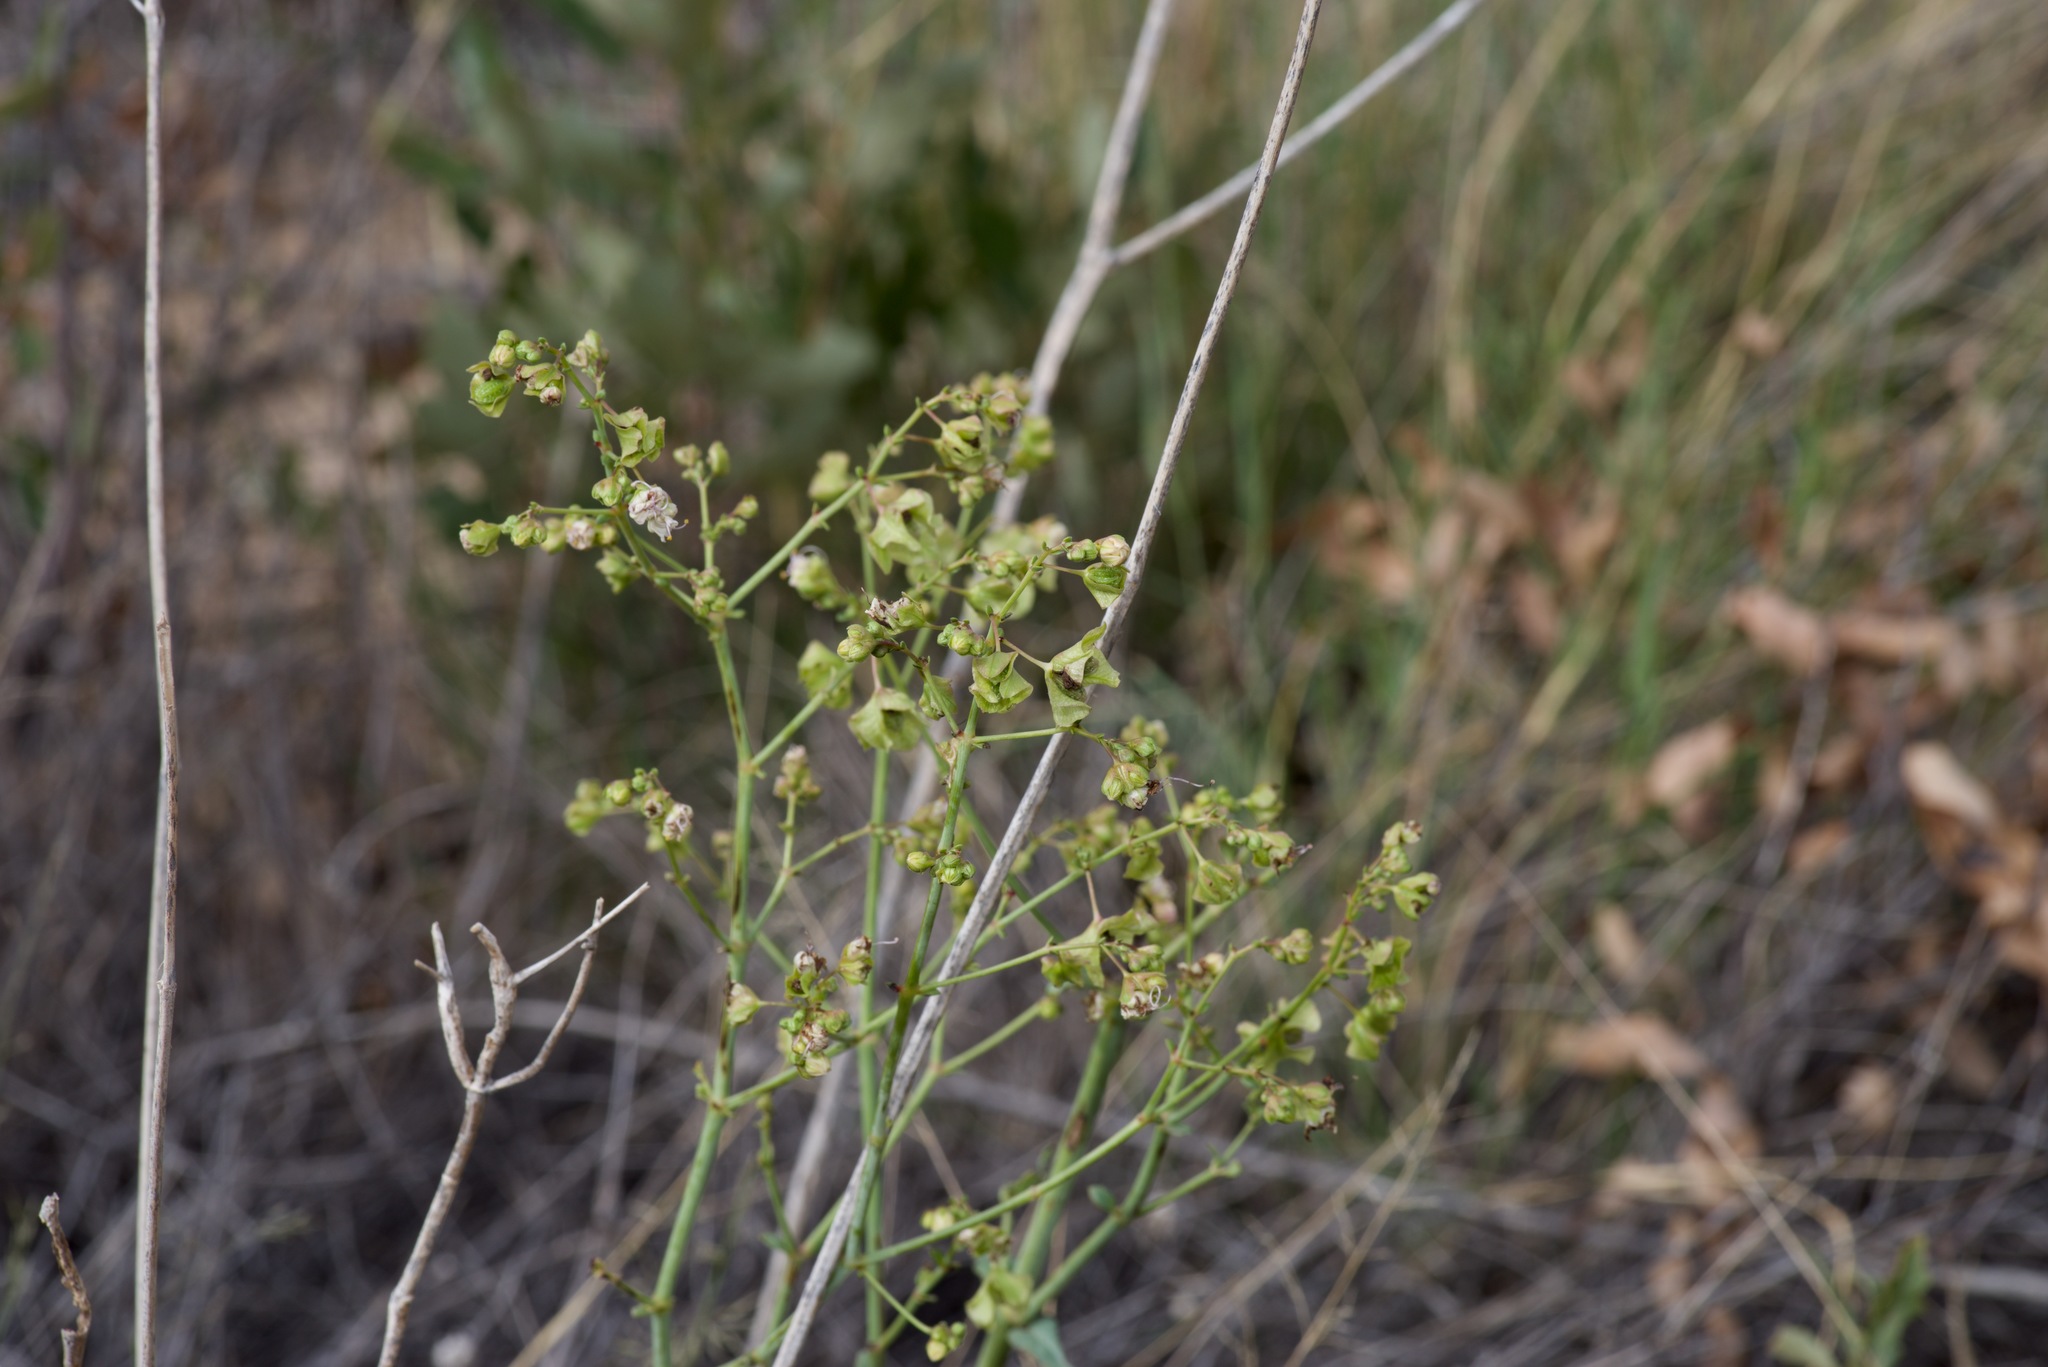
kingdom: Plantae
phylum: Tracheophyta
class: Magnoliopsida
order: Caryophyllales
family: Nyctaginaceae
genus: Mirabilis
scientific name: Mirabilis glabra
